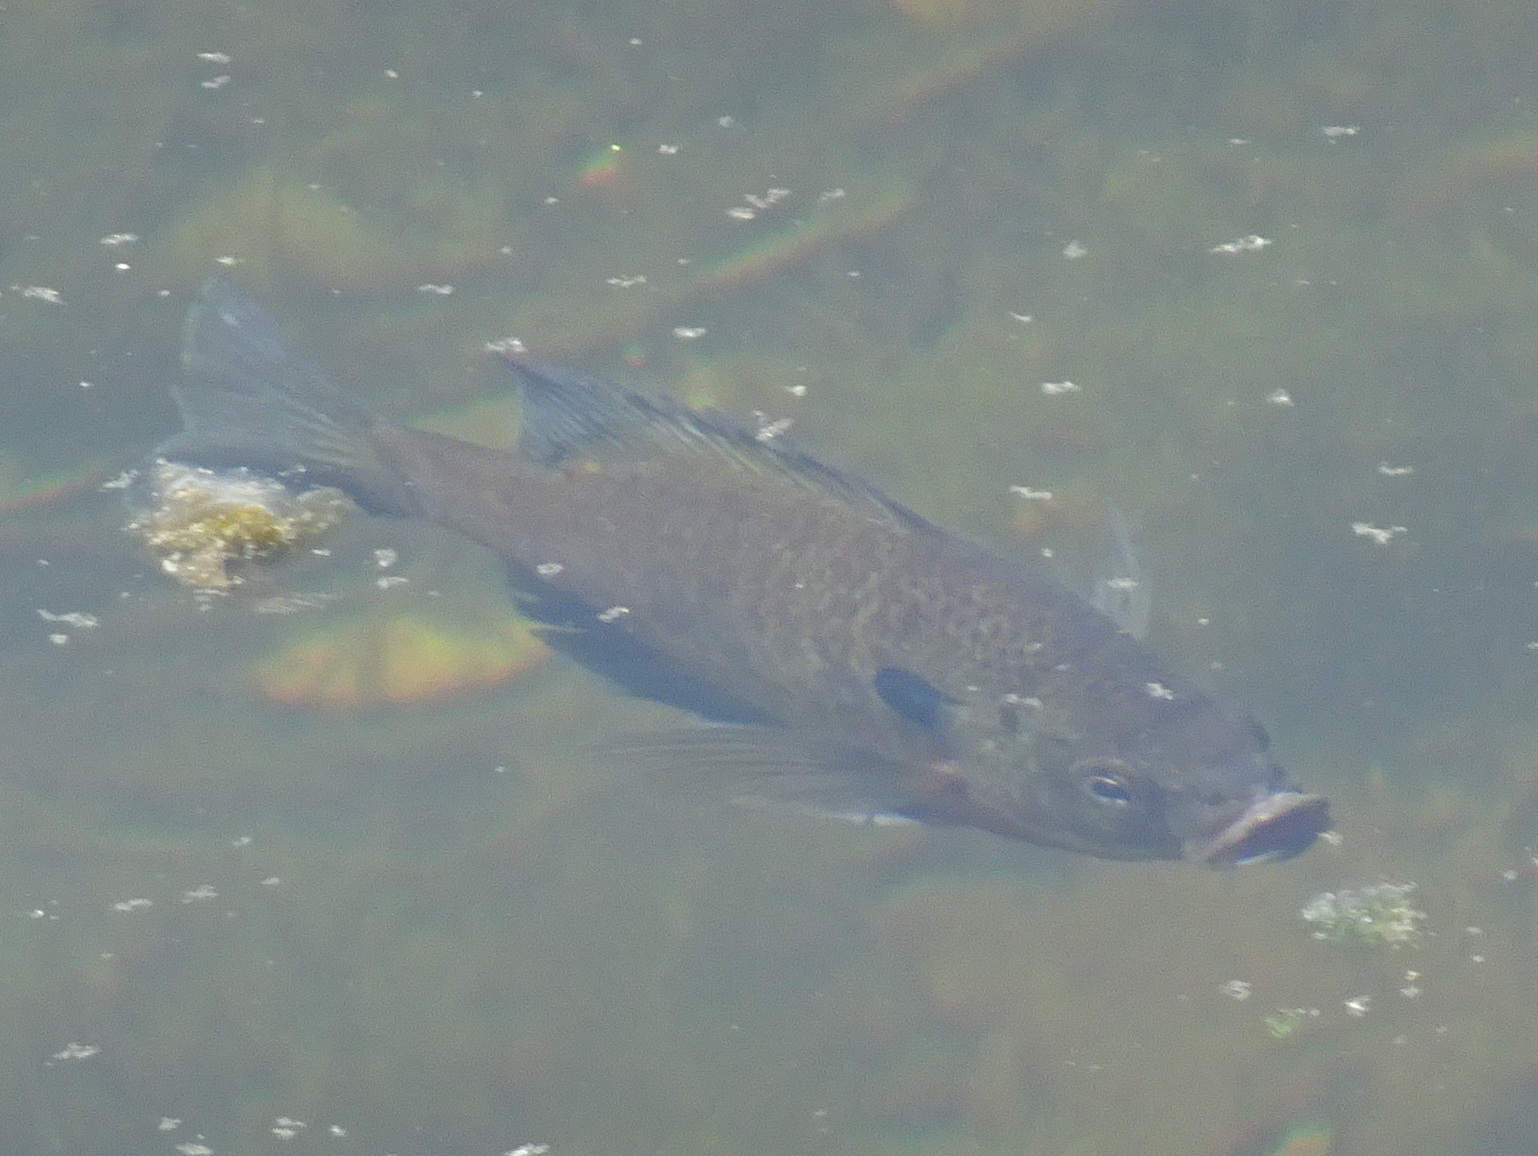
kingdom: Animalia
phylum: Chordata
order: Perciformes
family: Centrarchidae
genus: Lepomis
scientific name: Lepomis macrochirus
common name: Bluegill
